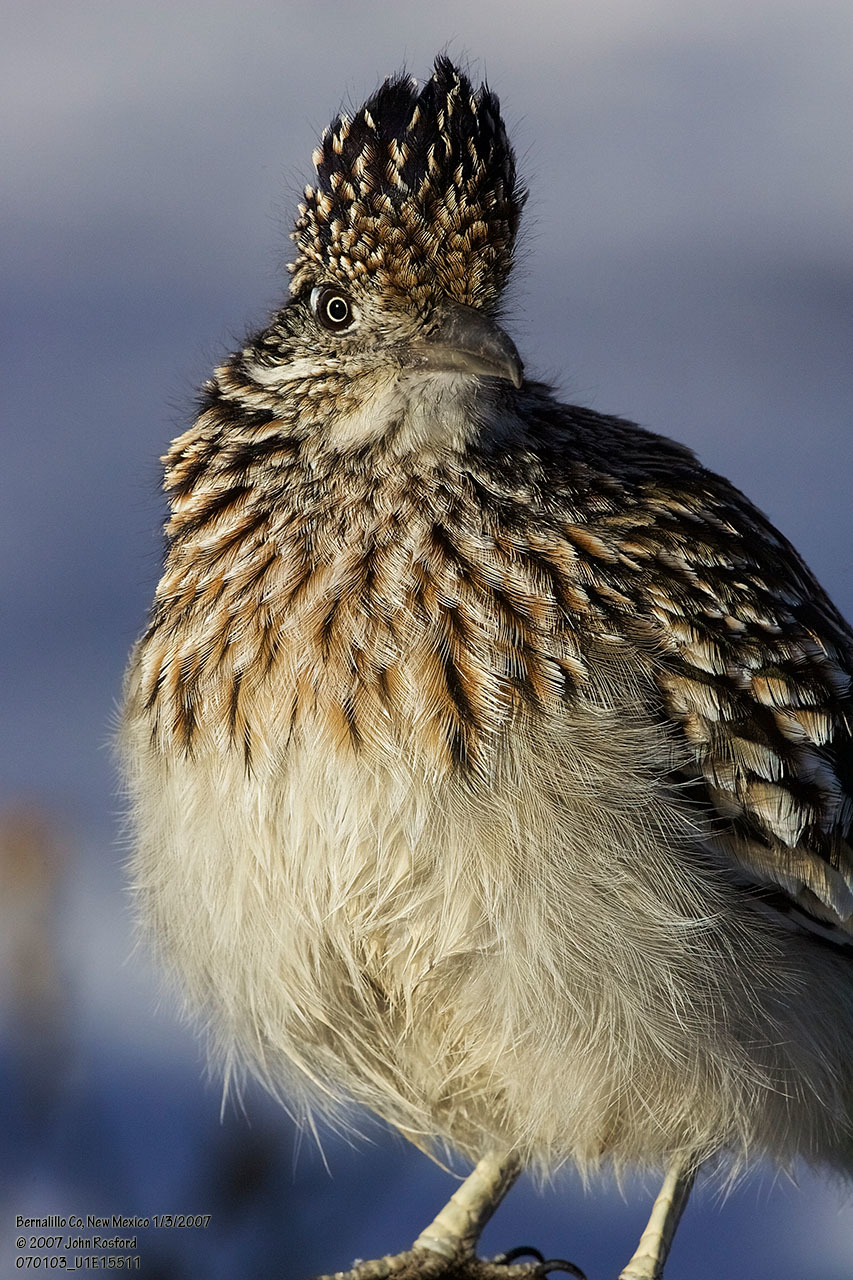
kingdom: Animalia
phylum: Chordata
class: Aves
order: Cuculiformes
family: Cuculidae
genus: Geococcyx
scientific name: Geococcyx californianus
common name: Greater roadrunner
